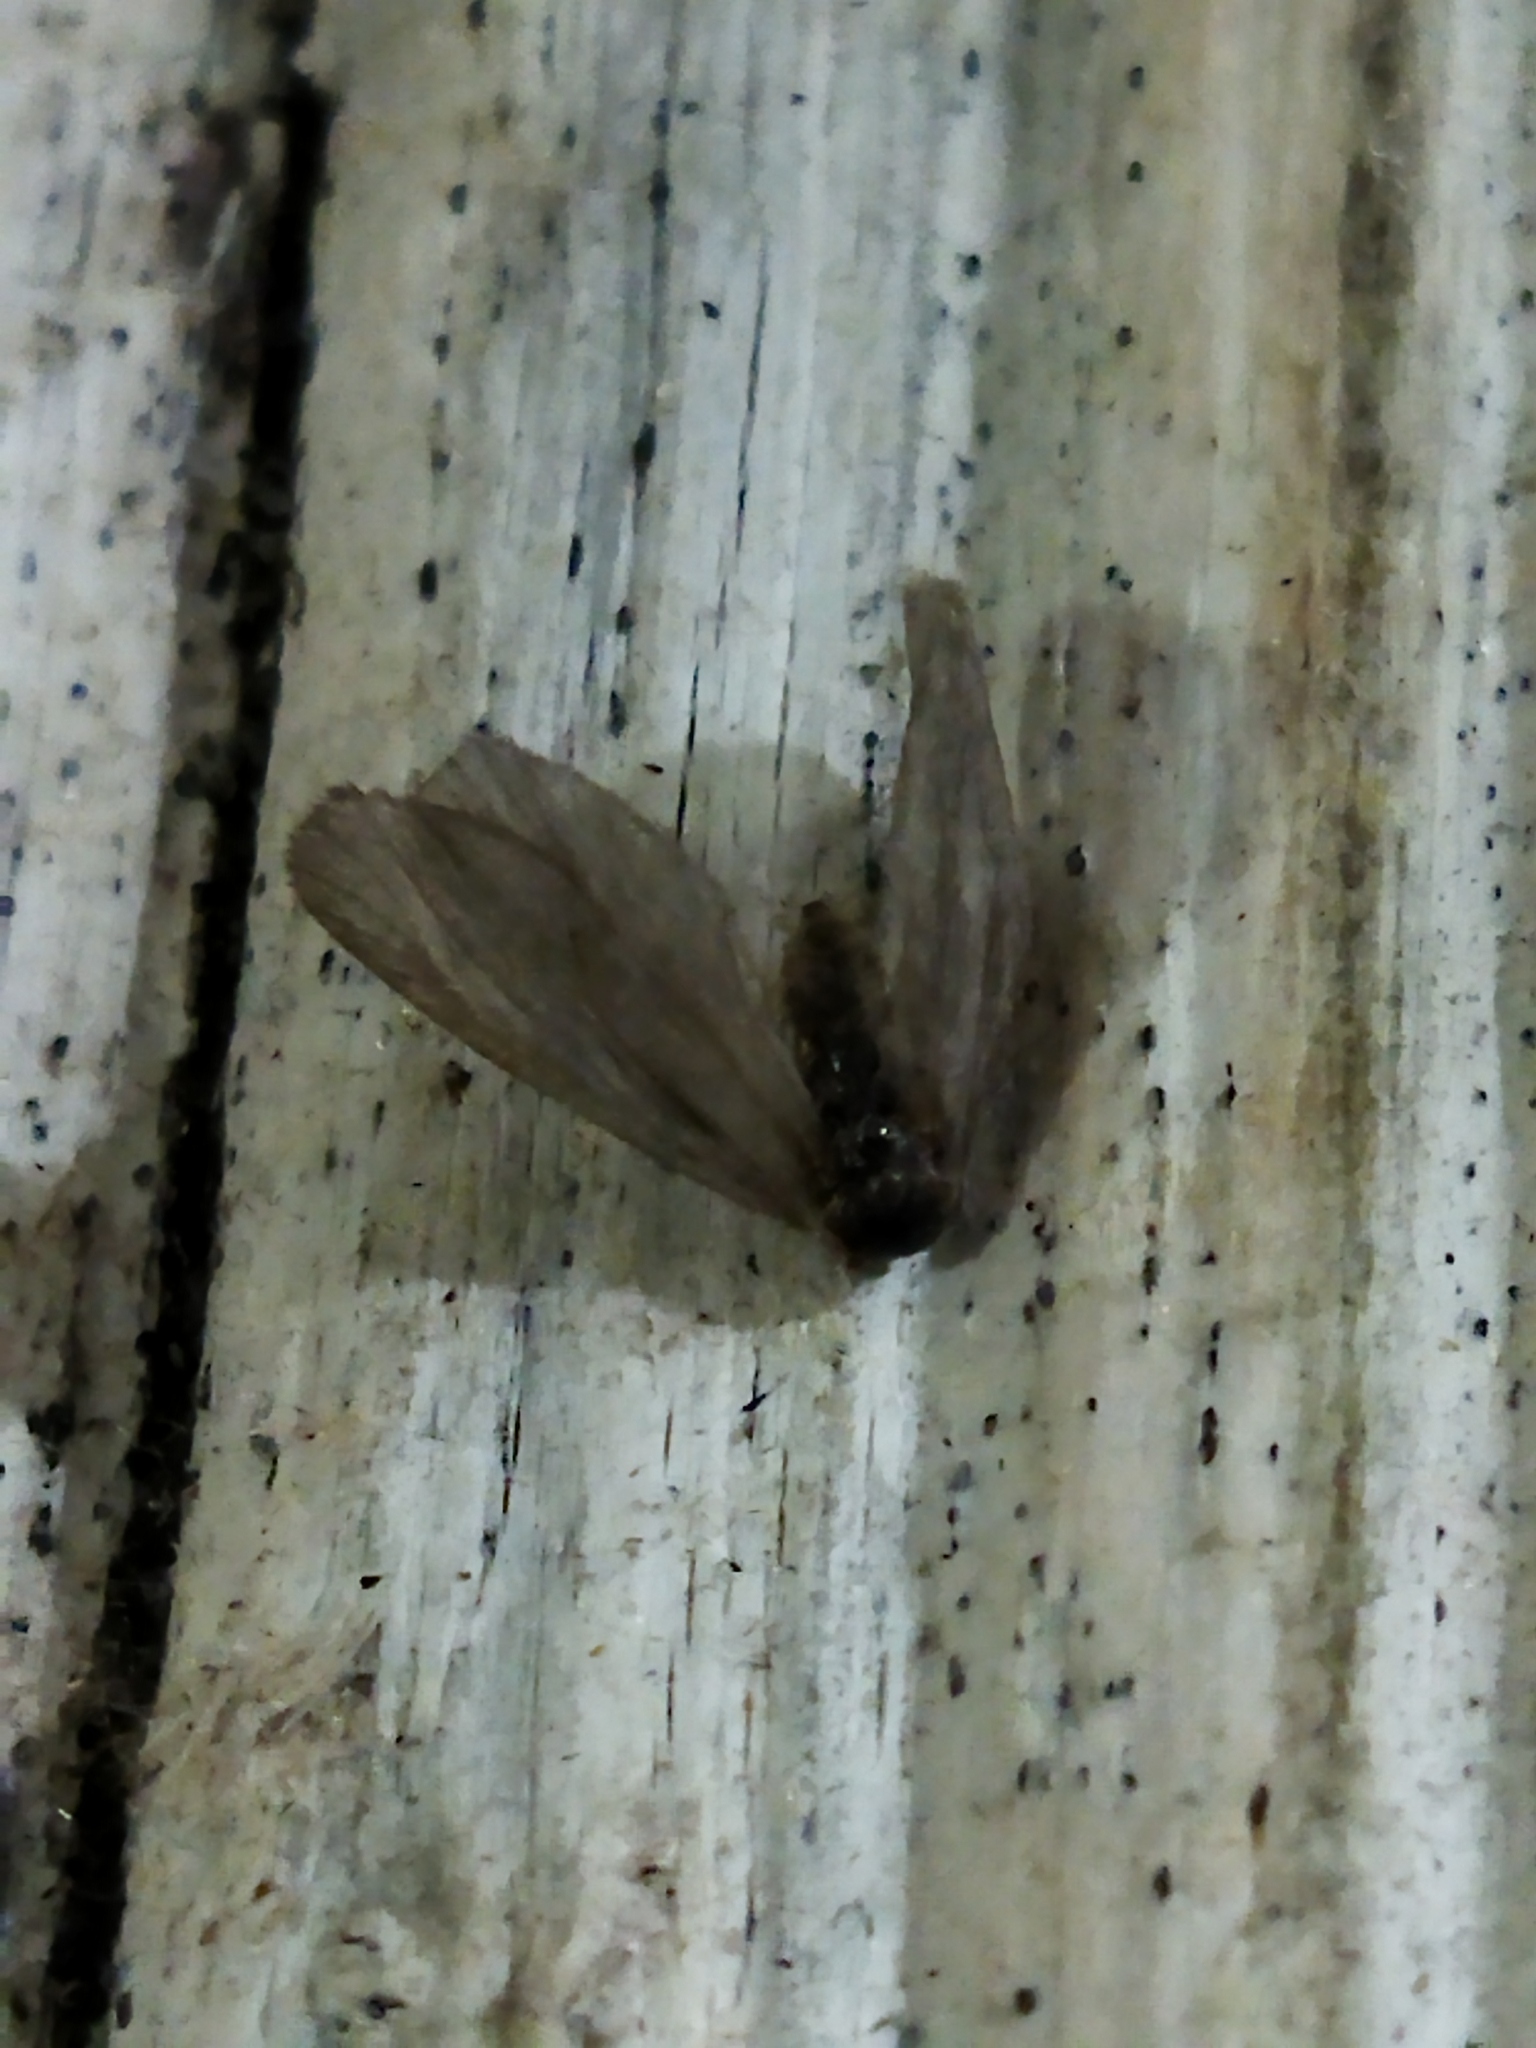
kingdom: Animalia
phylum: Arthropoda
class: Insecta
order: Lepidoptera
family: Psychidae
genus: Rebelia
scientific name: Rebelia perlucidella
